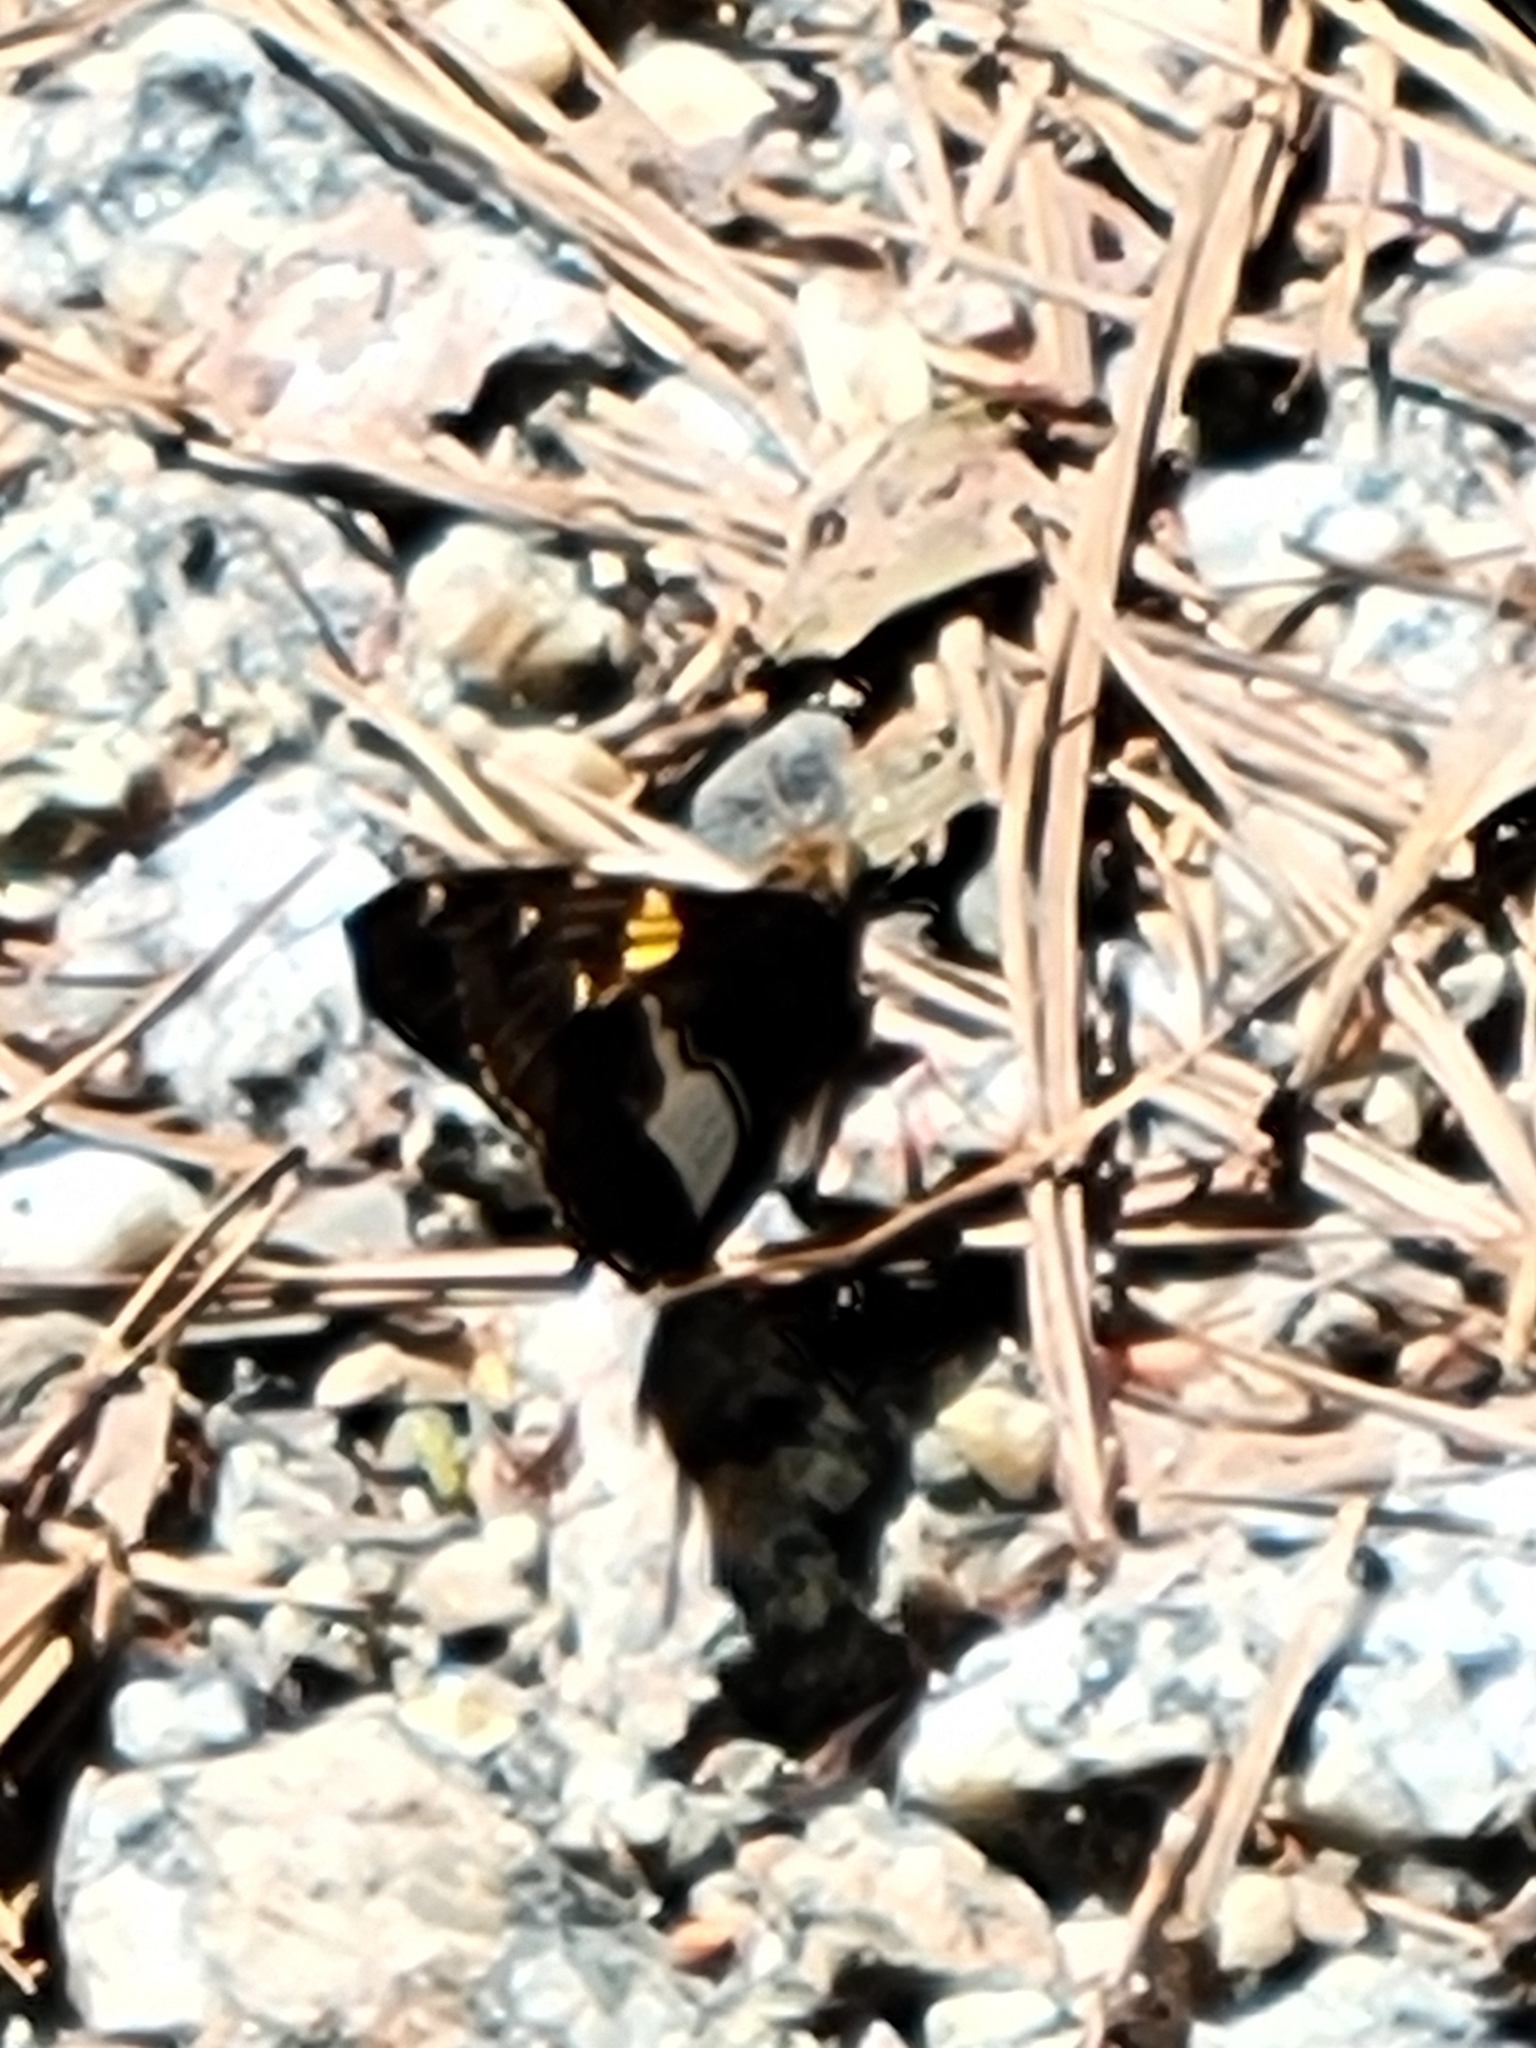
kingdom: Animalia
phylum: Arthropoda
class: Insecta
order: Lepidoptera
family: Hesperiidae
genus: Epargyreus
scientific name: Epargyreus clarus
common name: Silver-spotted skipper
